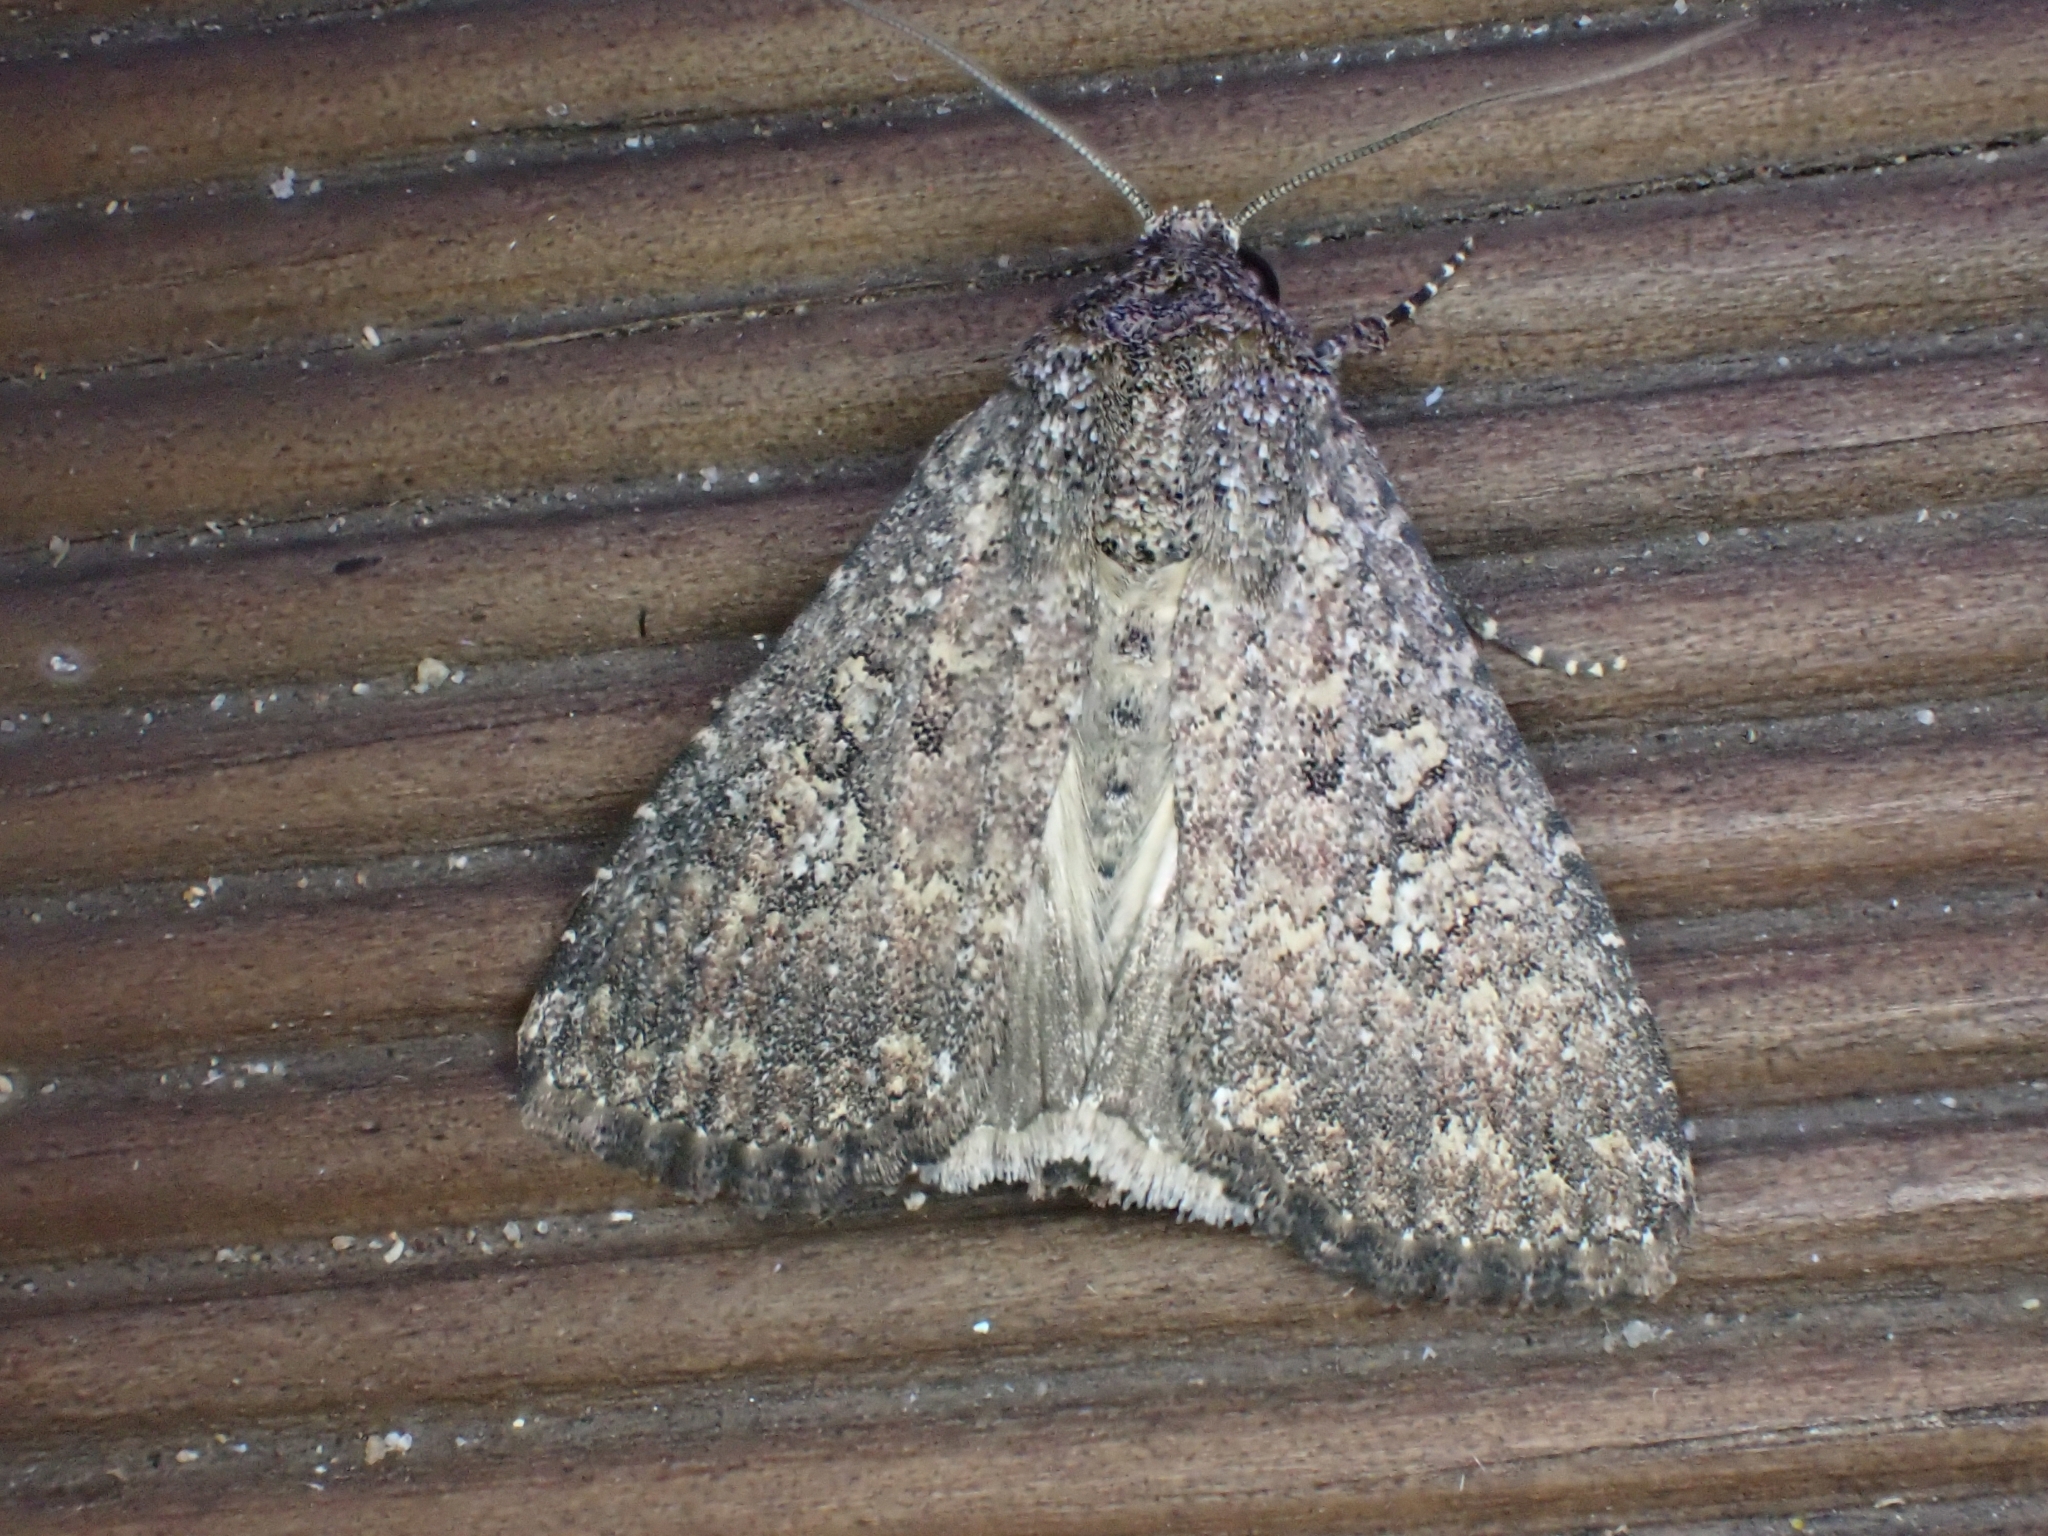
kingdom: Animalia
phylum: Arthropoda
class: Insecta
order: Lepidoptera
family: Noctuidae
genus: Condica
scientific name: Condica capensis
